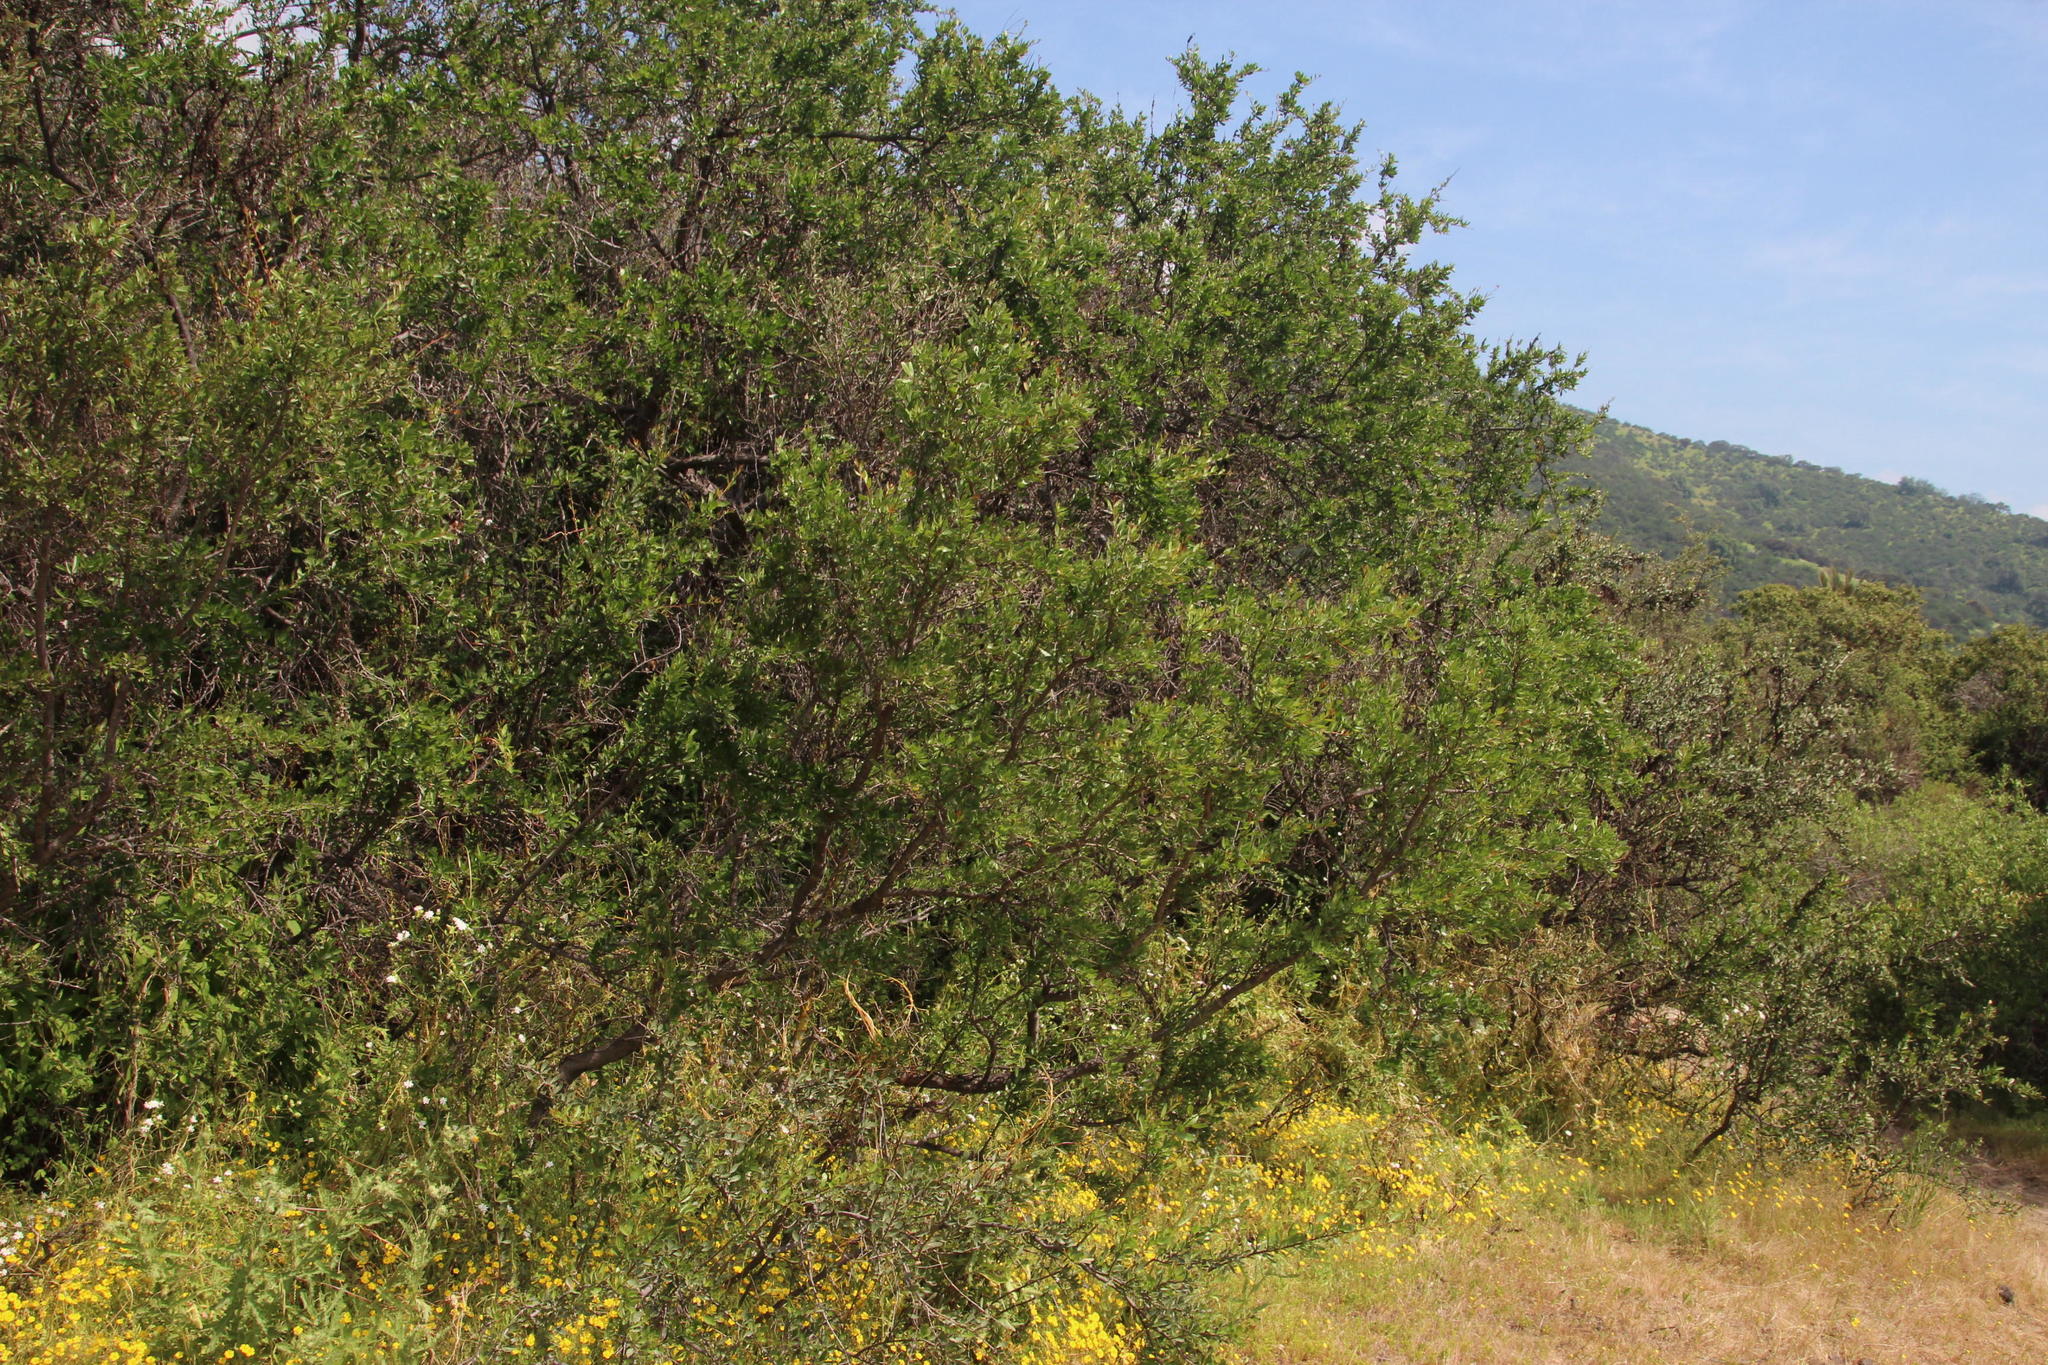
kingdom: Plantae
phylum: Tracheophyta
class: Magnoliopsida
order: Sapindales
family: Anacardiaceae
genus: Schinus
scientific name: Schinus polygama
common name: Hardee peppertree
